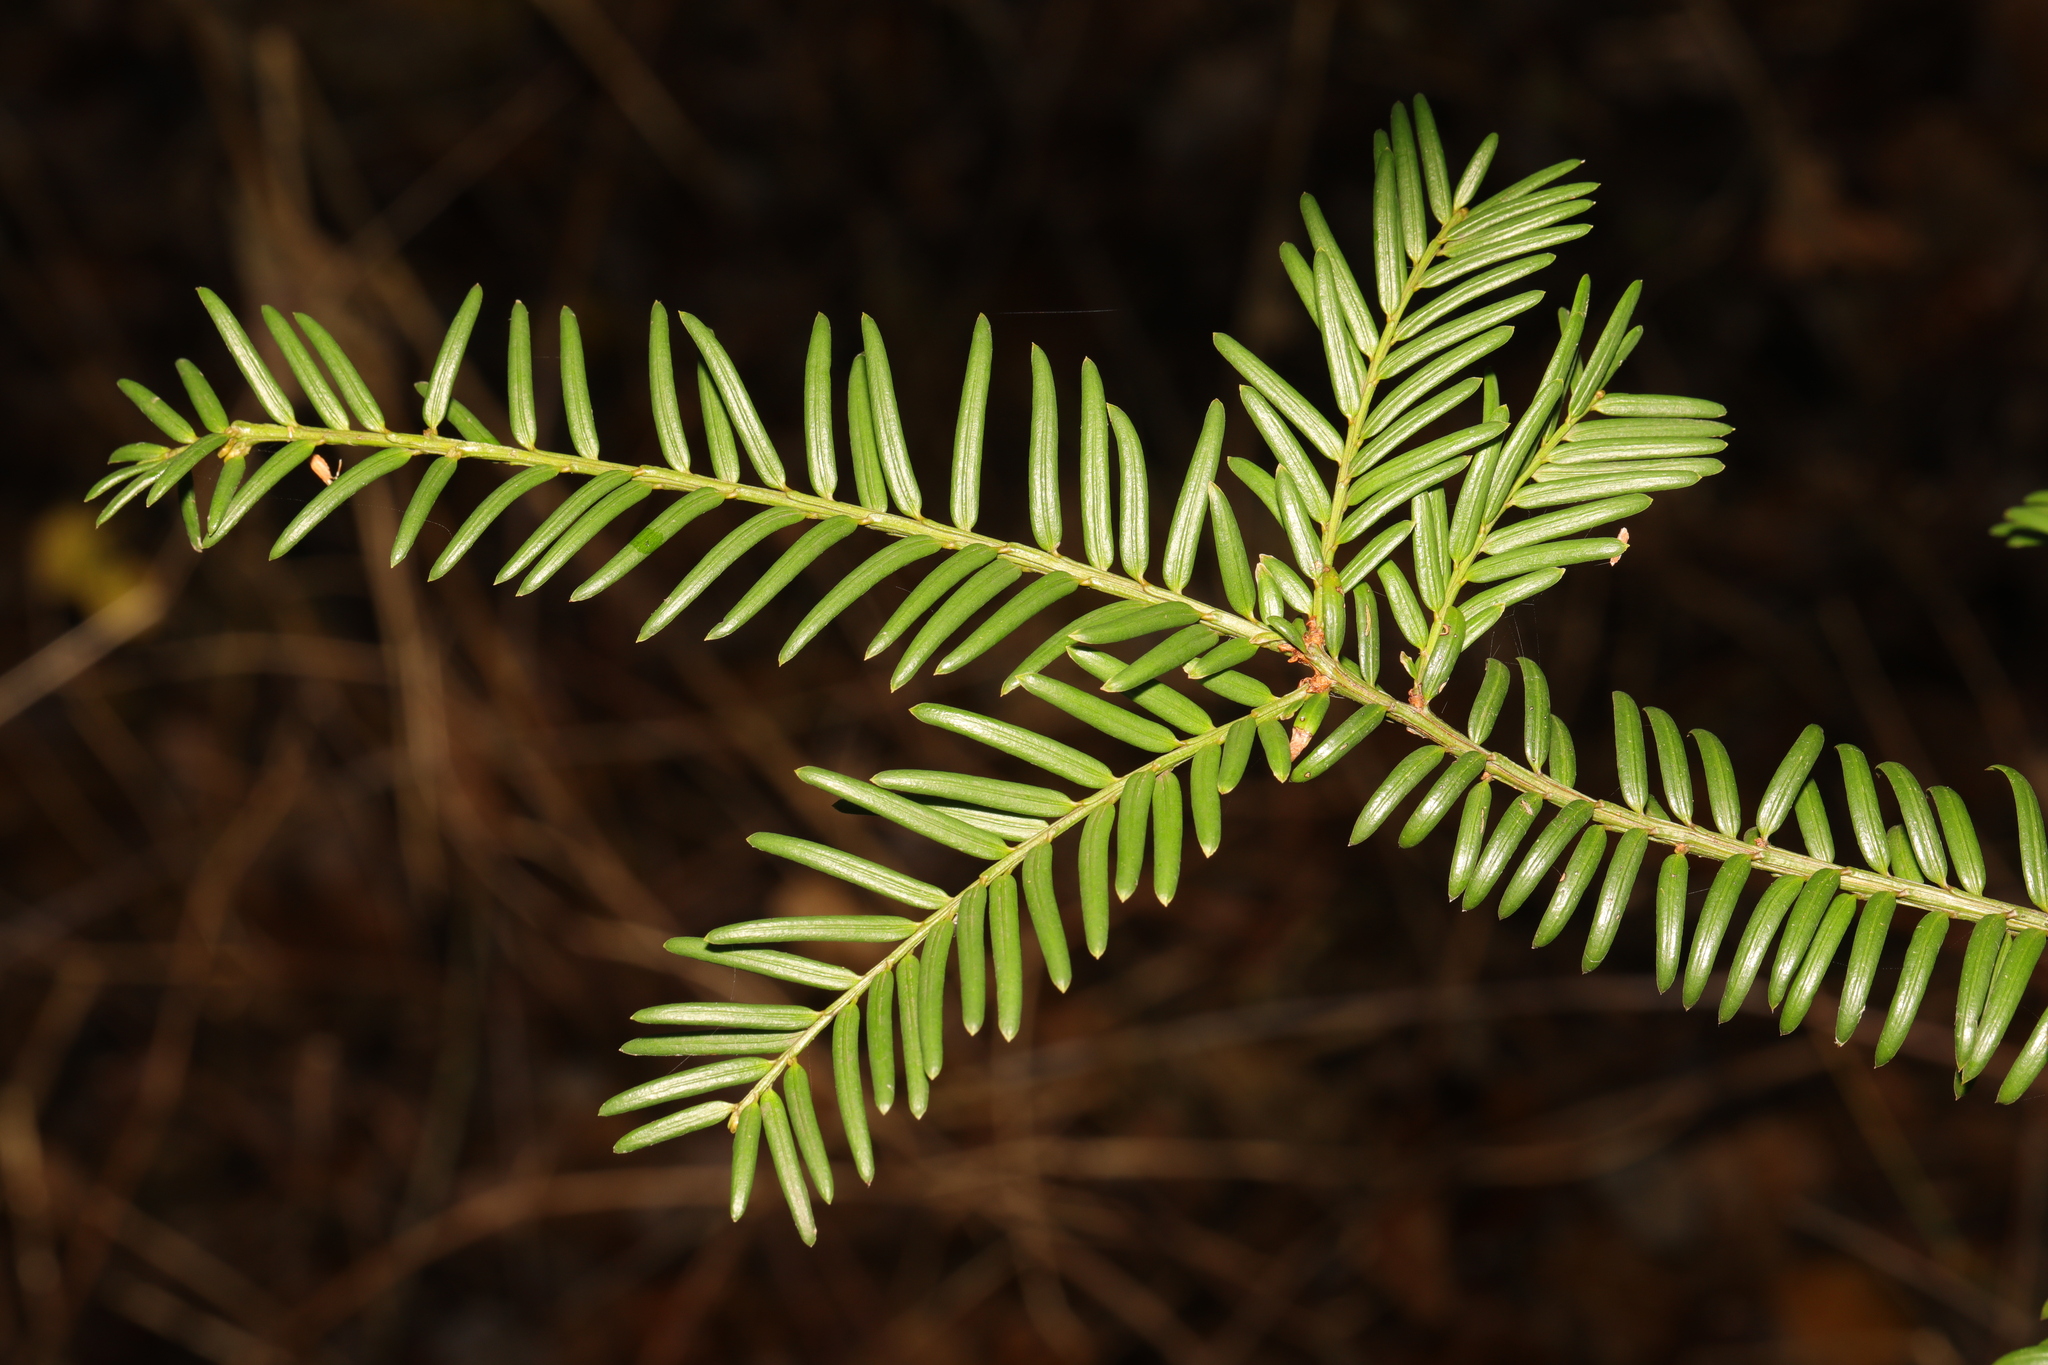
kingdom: Plantae
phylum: Tracheophyta
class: Pinopsida
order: Pinales
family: Taxaceae
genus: Taxus
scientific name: Taxus baccata
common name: Yew
